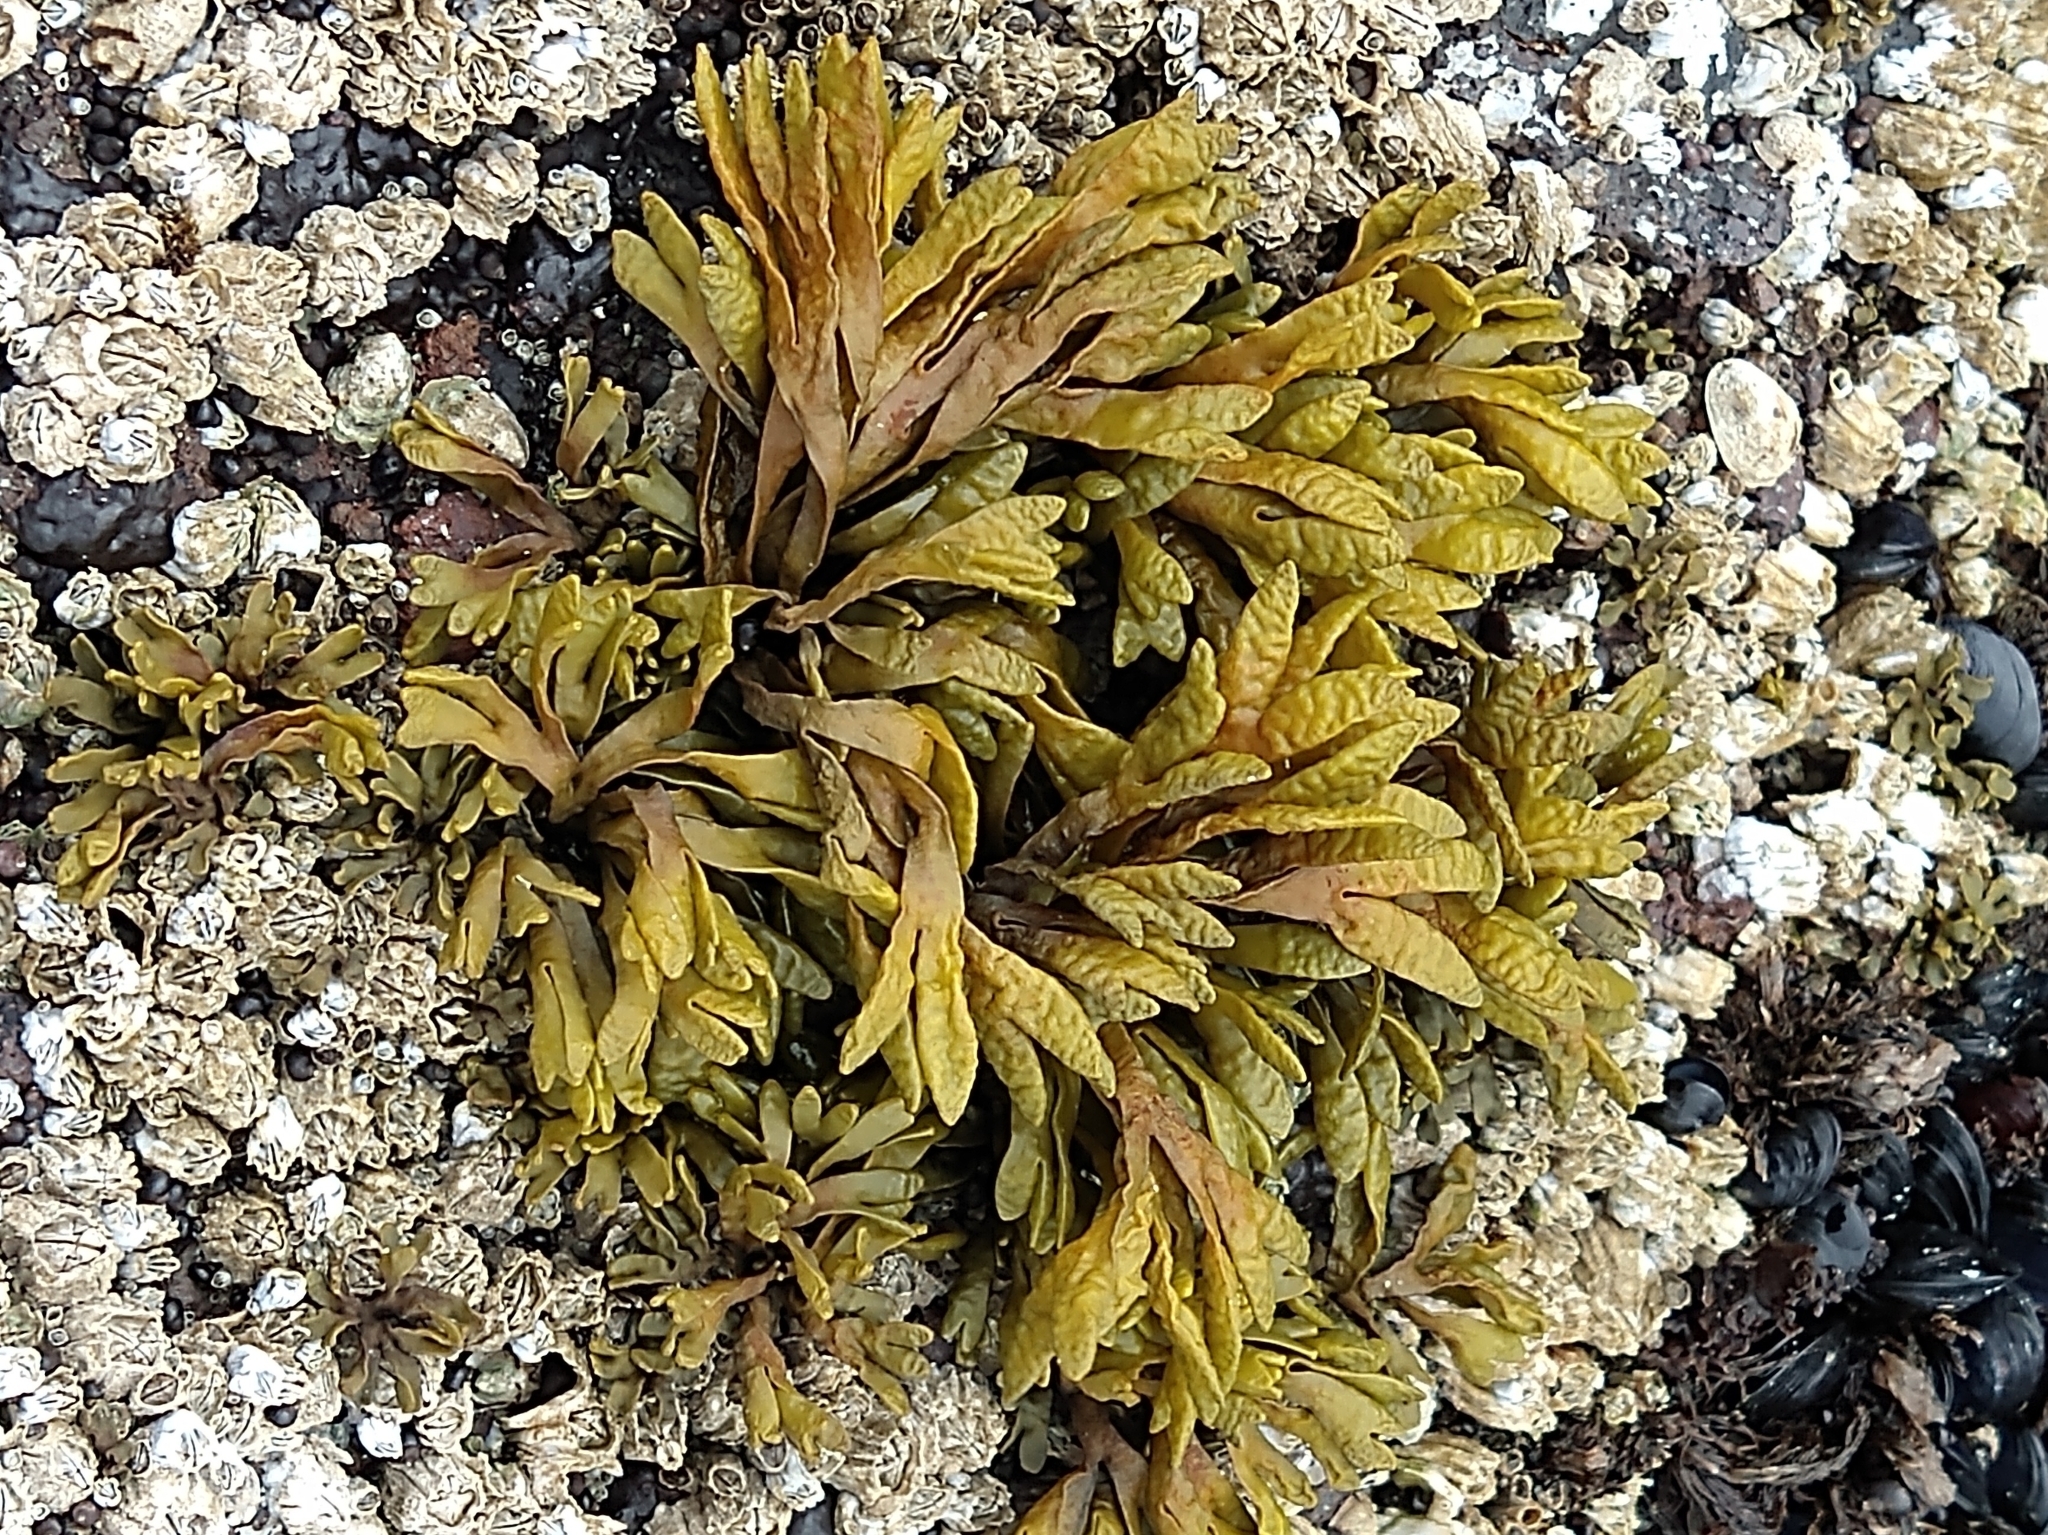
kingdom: Chromista
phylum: Ochrophyta
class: Phaeophyceae
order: Fucales
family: Fucaceae
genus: Pelvetiopsis
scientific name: Pelvetiopsis limitata
